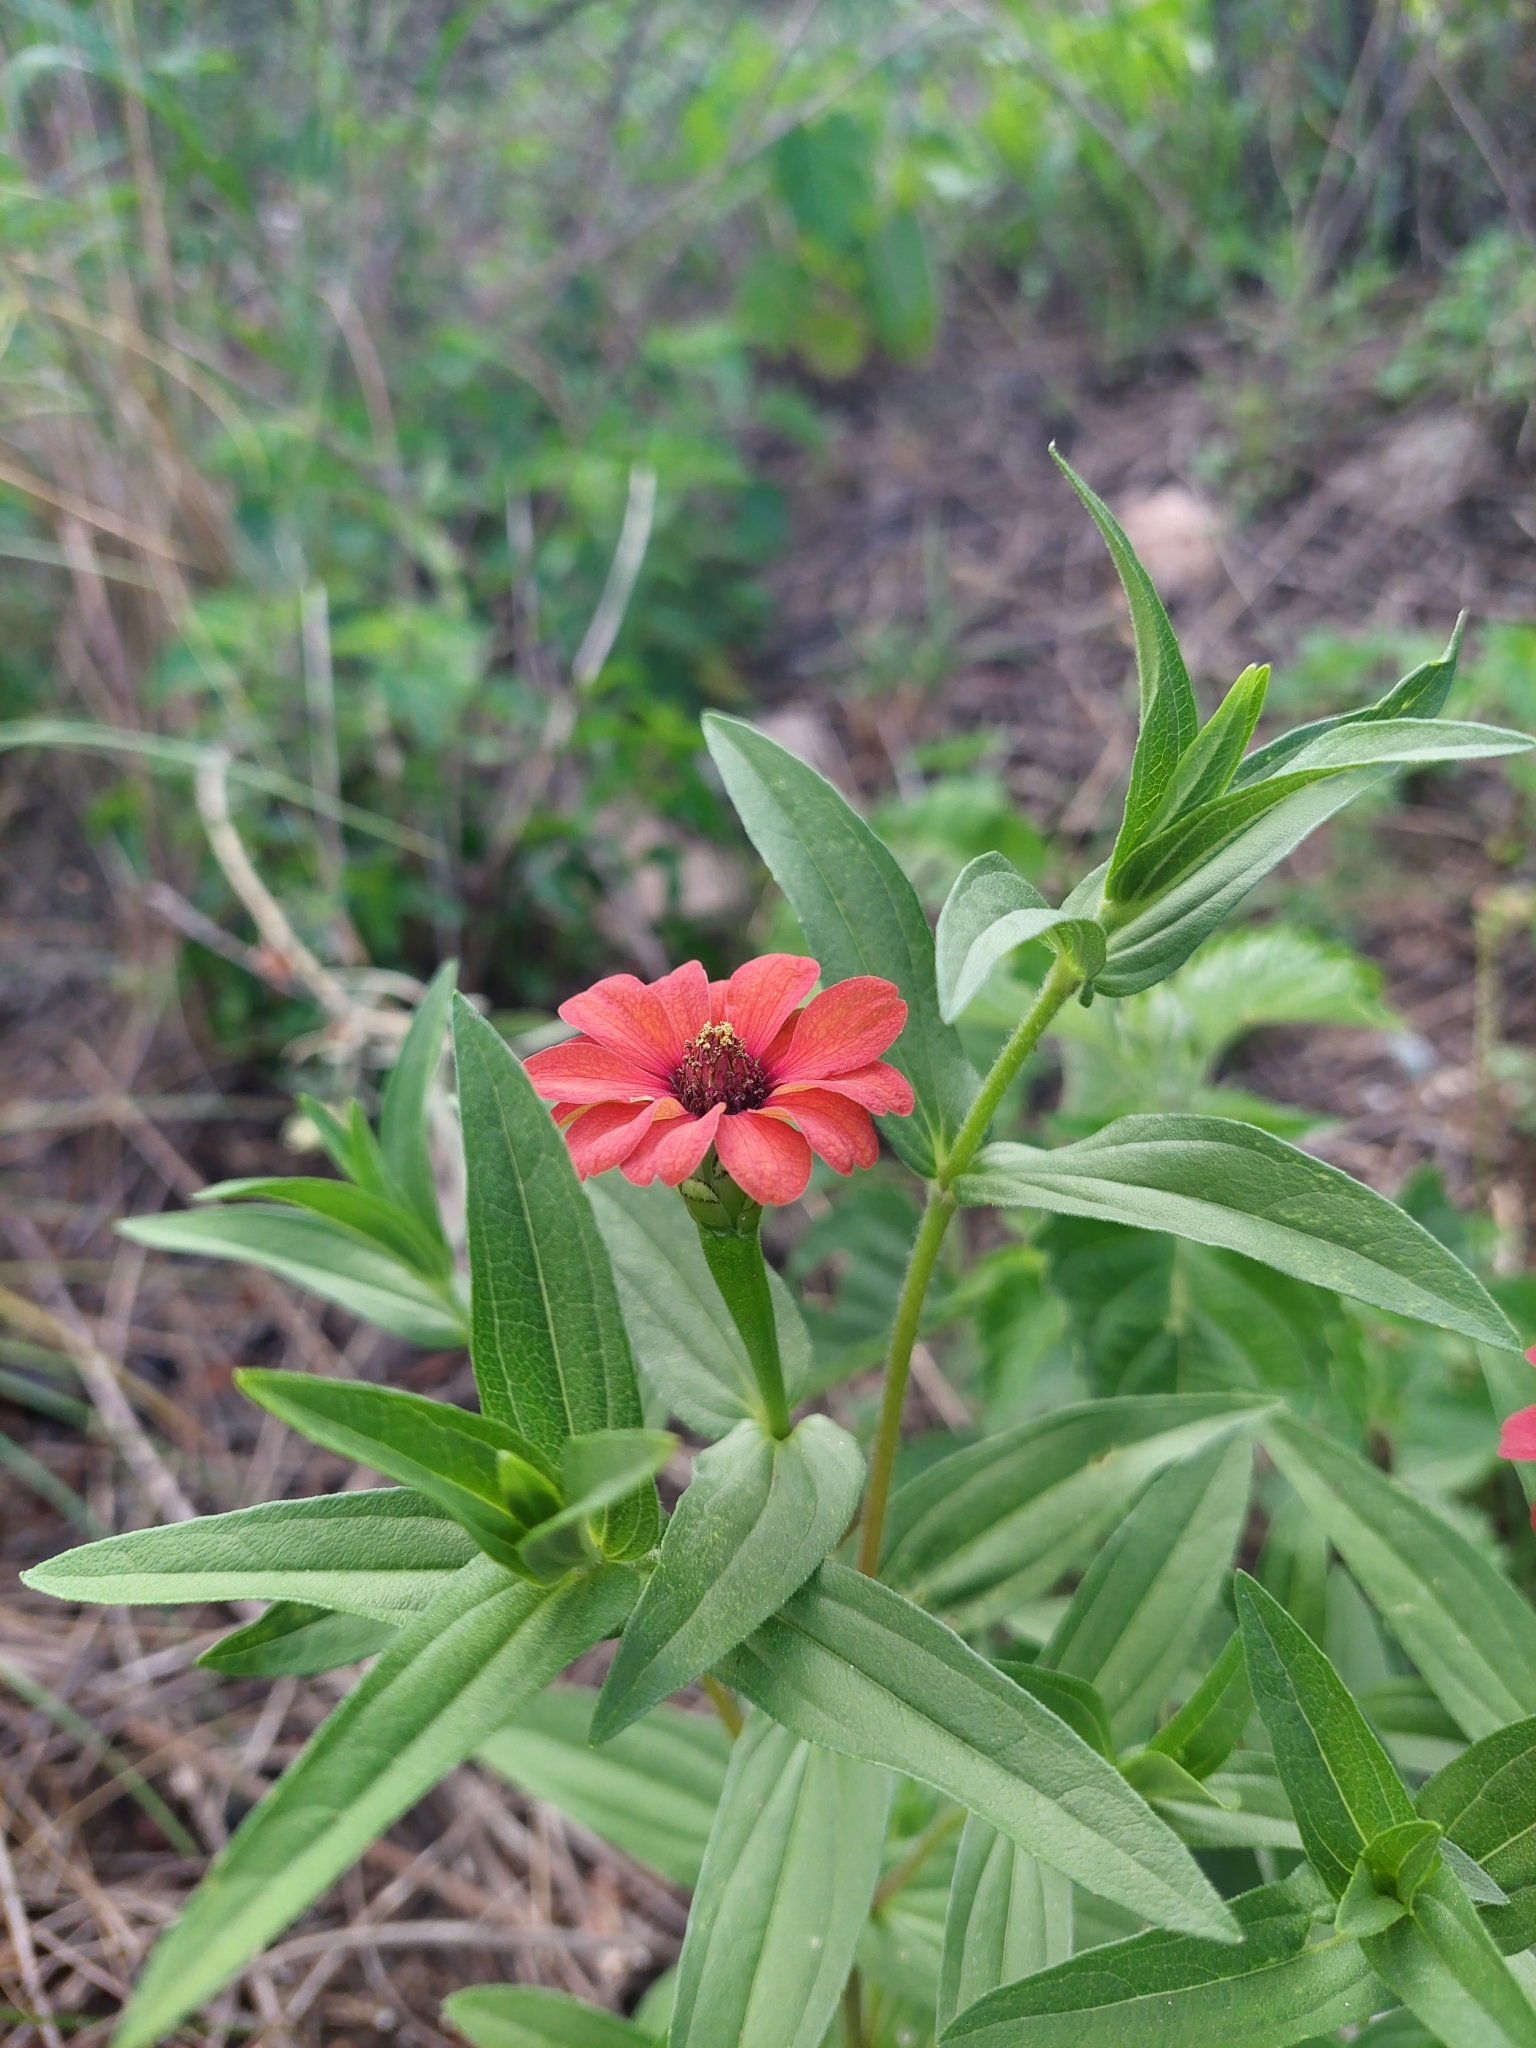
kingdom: Plantae
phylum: Tracheophyta
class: Magnoliopsida
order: Asterales
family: Asteraceae
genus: Zinnia
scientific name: Zinnia peruviana
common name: Peruvian zinnia
